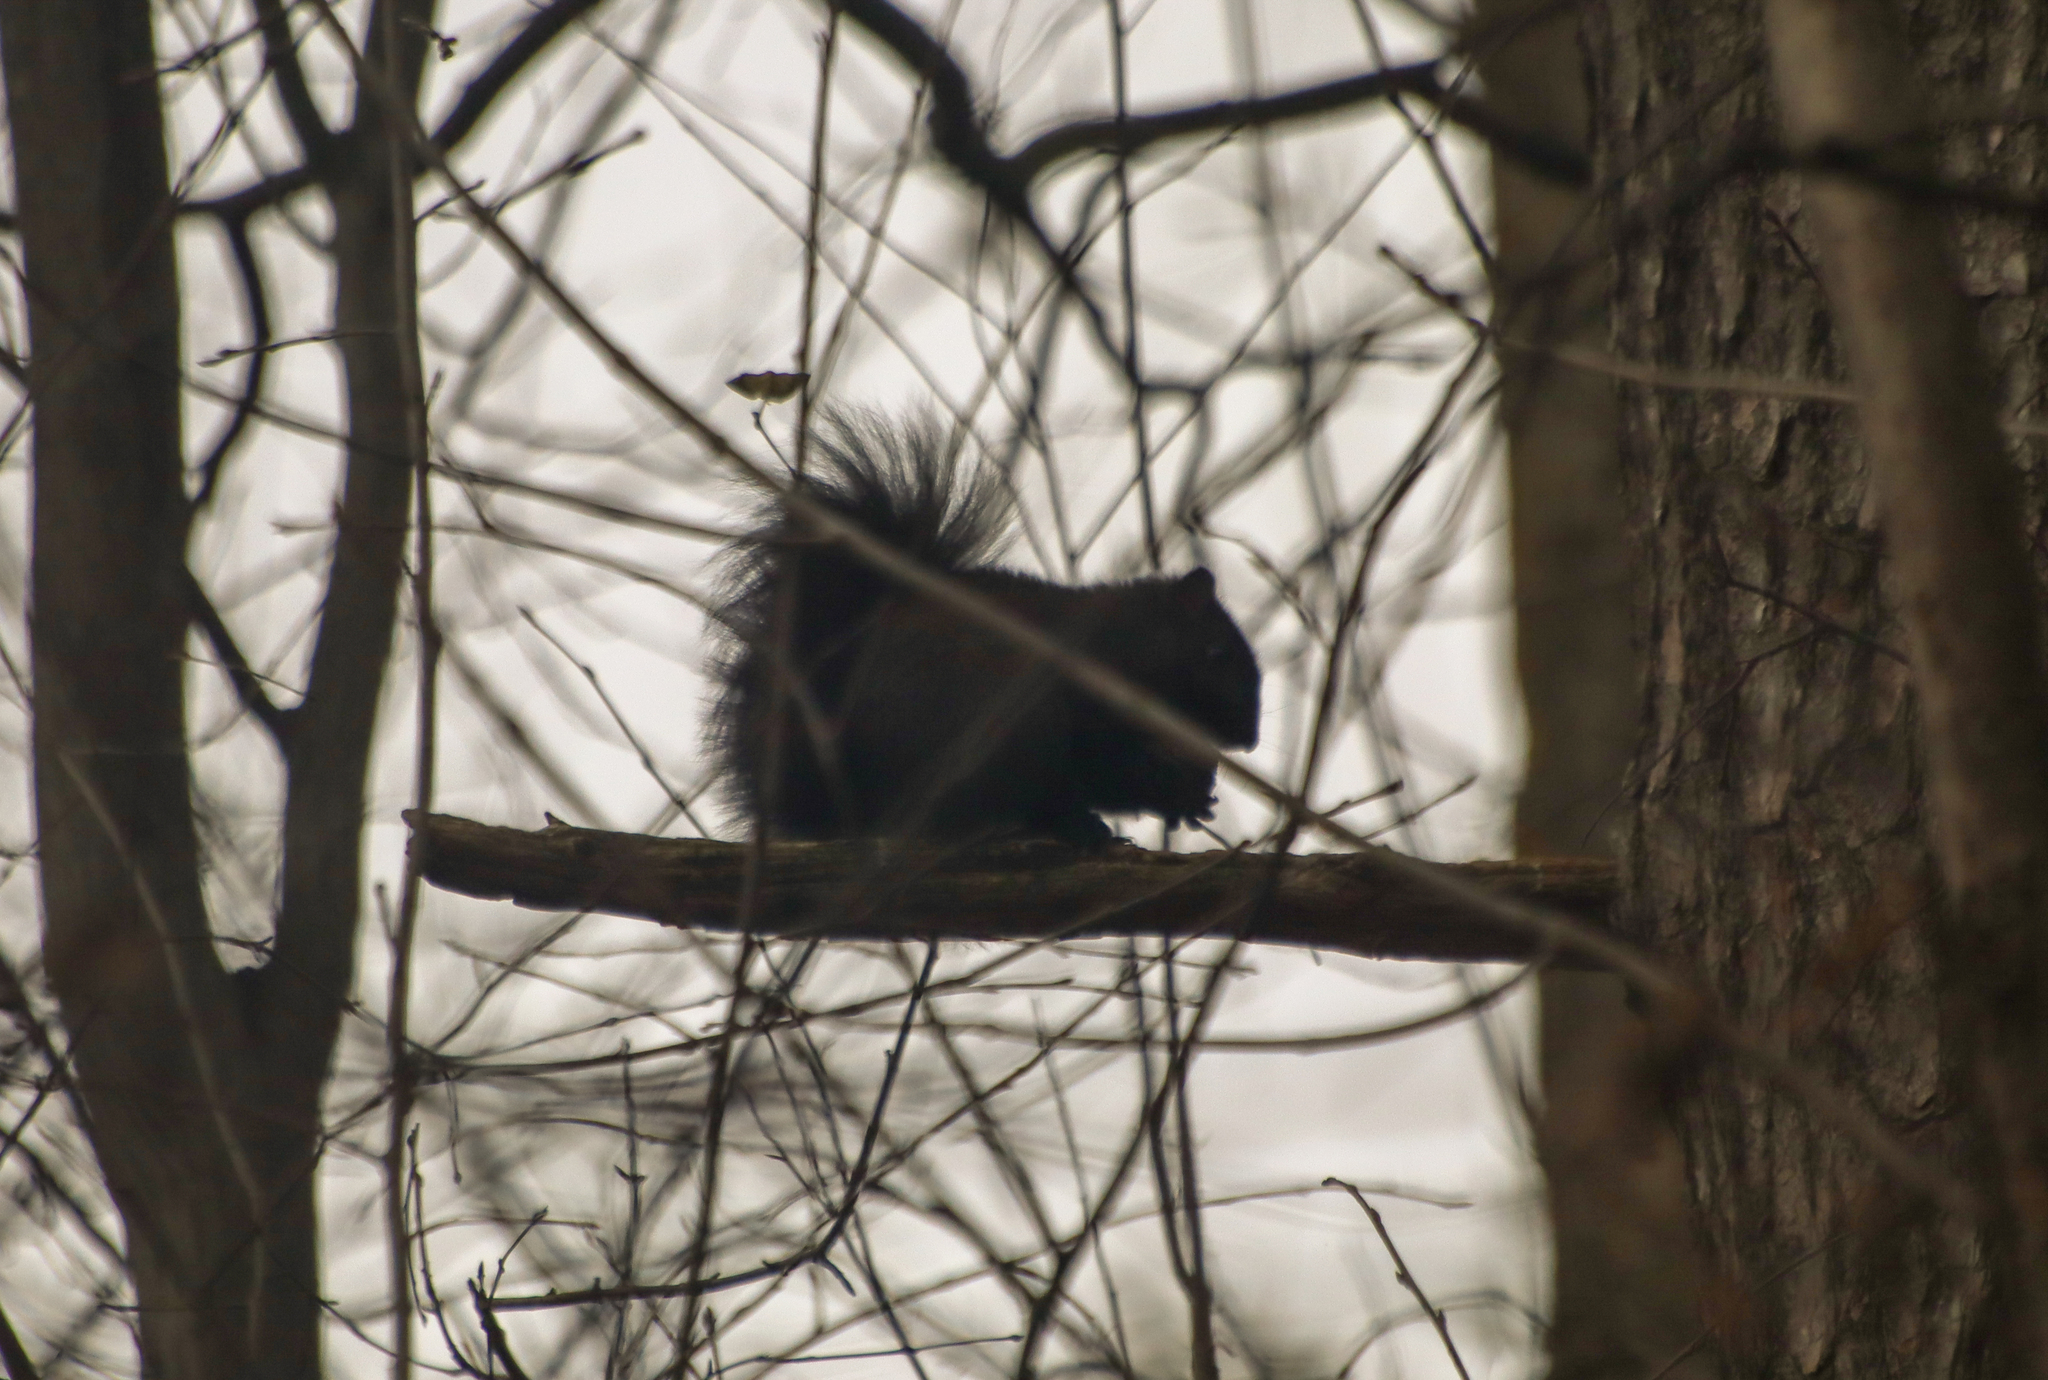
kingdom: Animalia
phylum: Chordata
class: Mammalia
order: Rodentia
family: Sciuridae
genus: Sciurus
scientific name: Sciurus carolinensis
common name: Eastern gray squirrel
